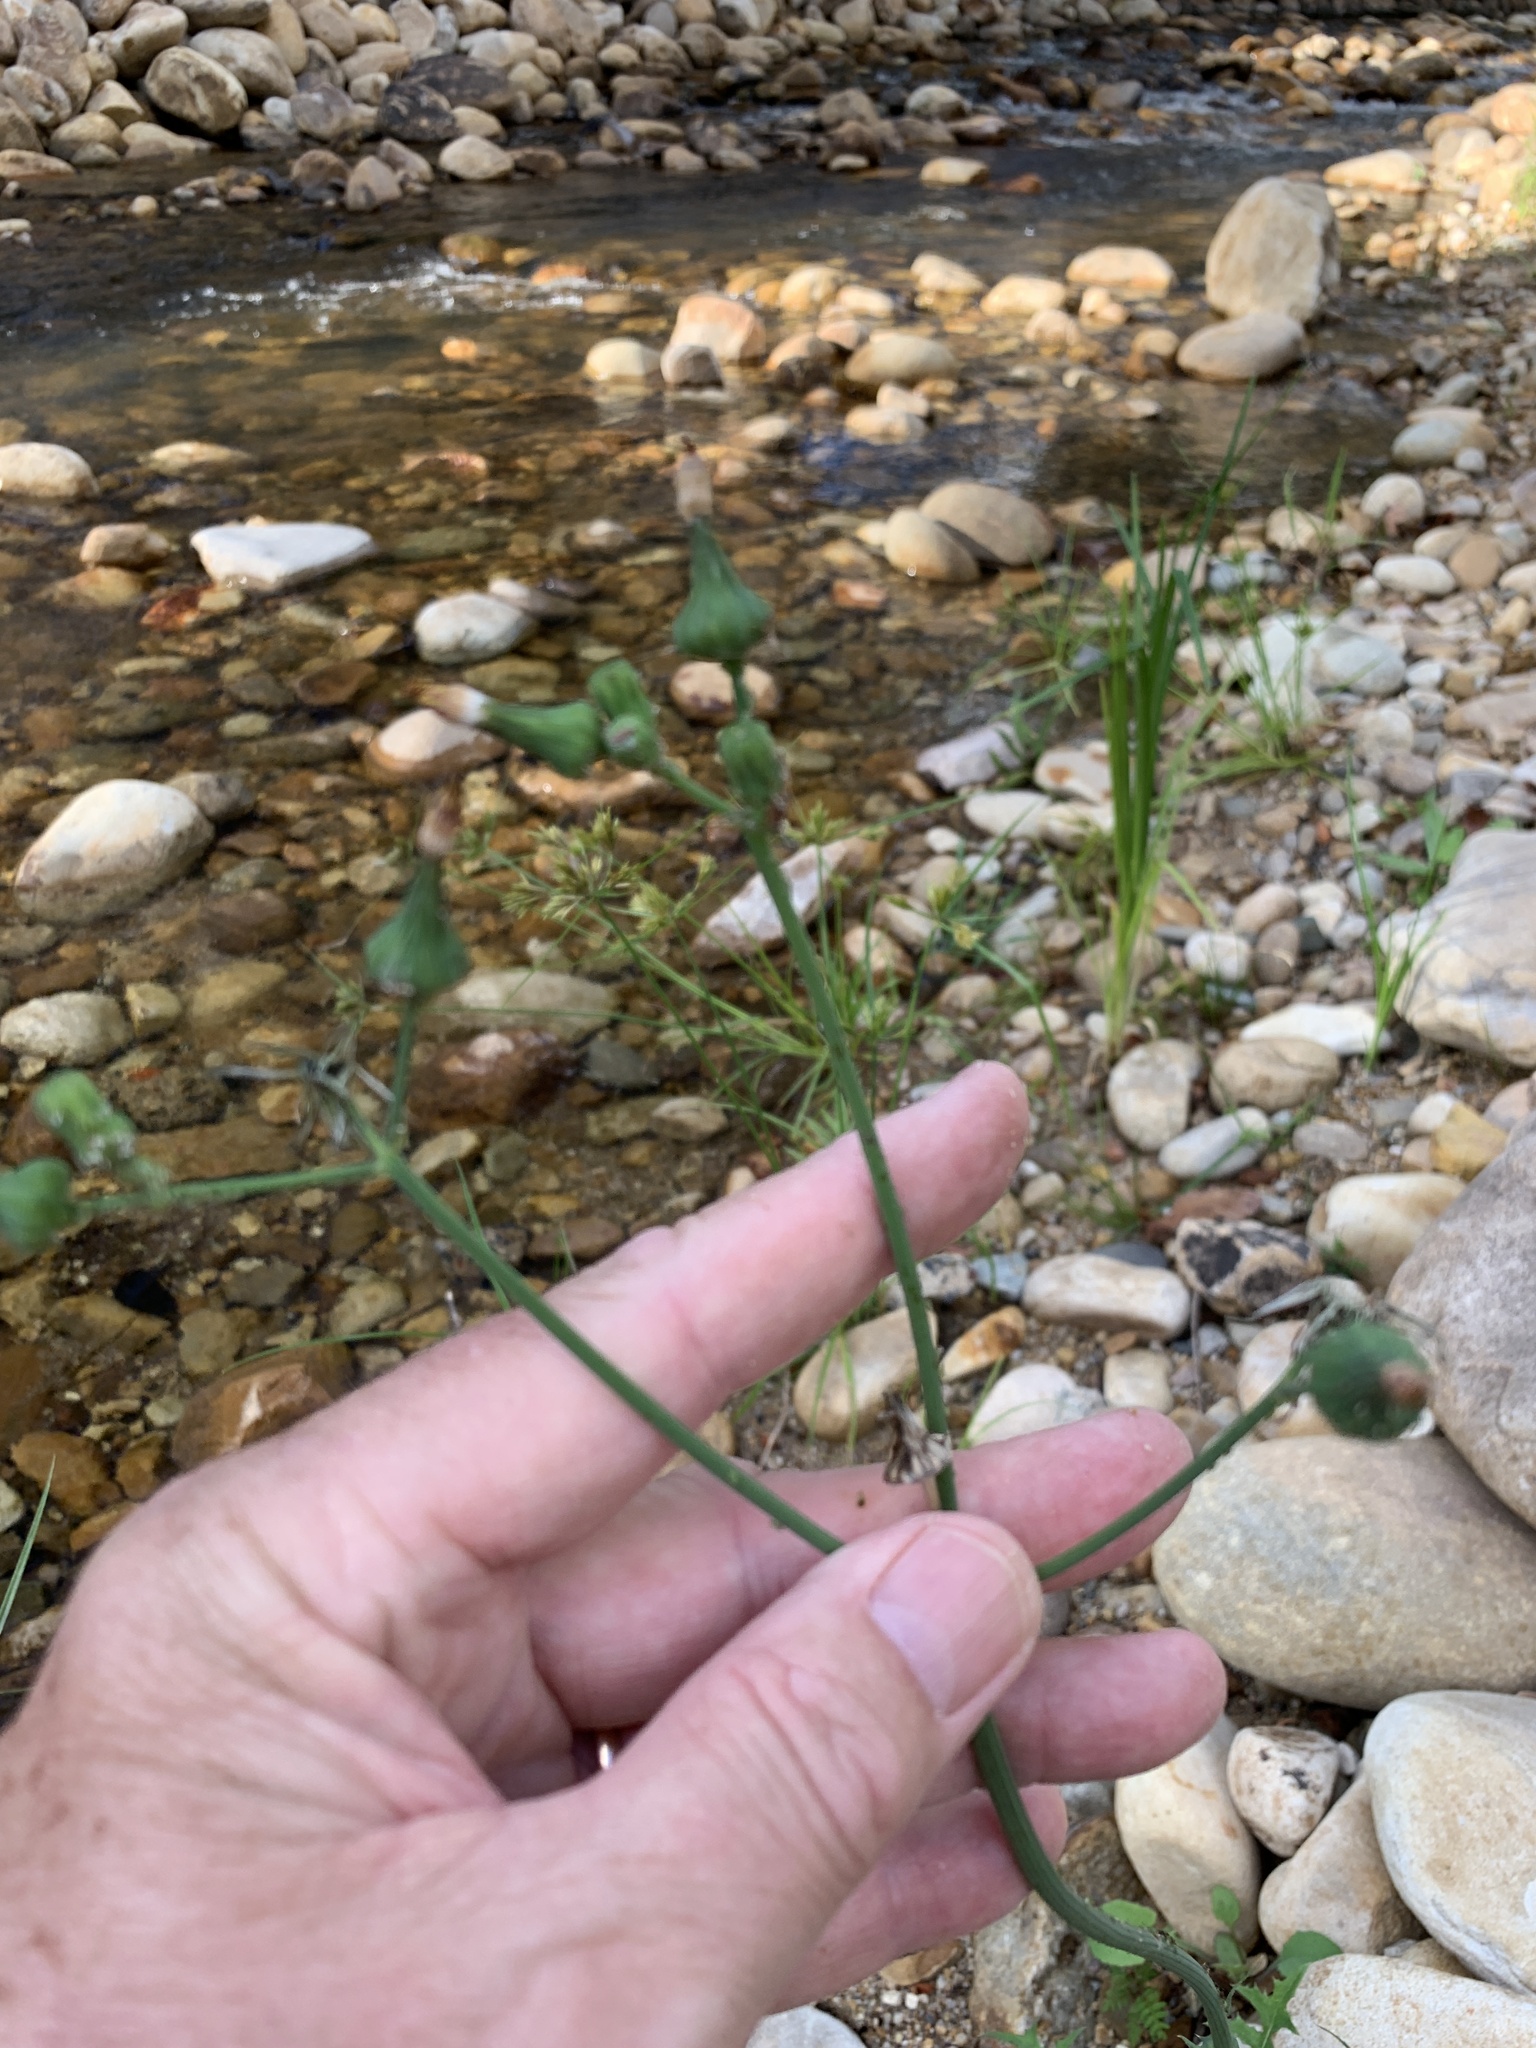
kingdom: Plantae
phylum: Tracheophyta
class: Magnoliopsida
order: Asterales
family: Asteraceae
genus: Sonchus
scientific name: Sonchus oleraceus
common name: Common sowthistle
